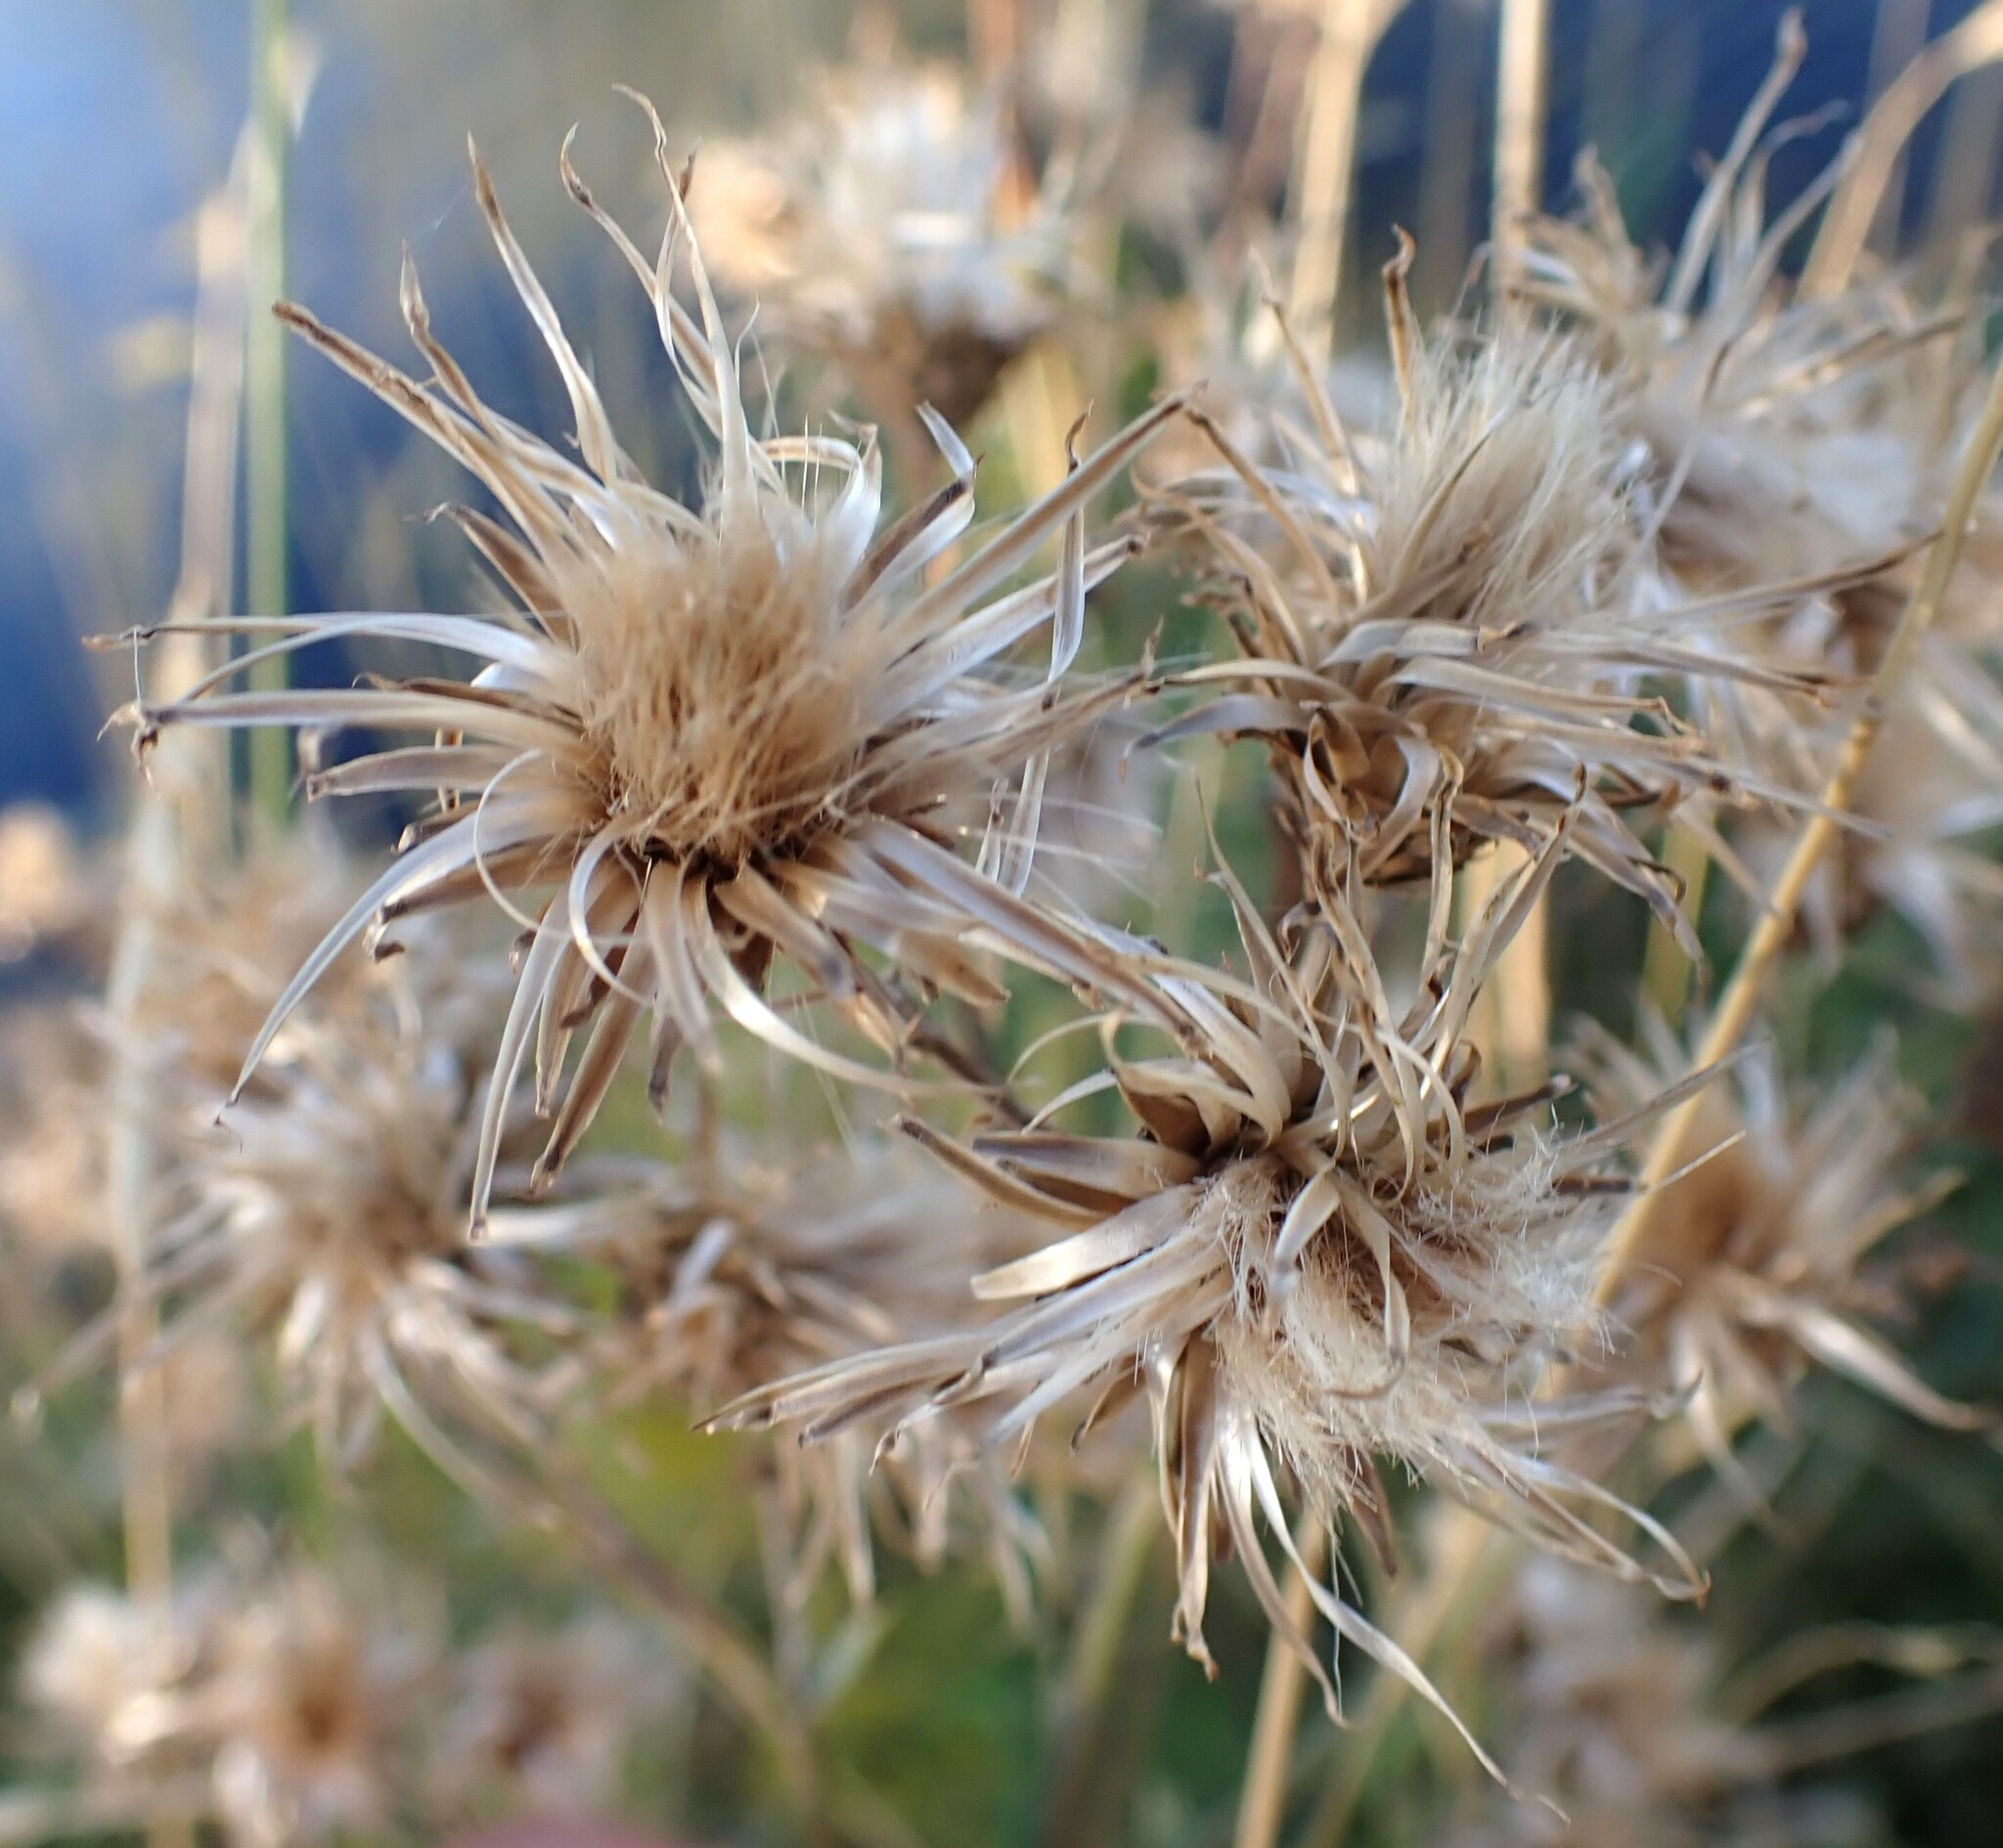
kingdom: Plantae
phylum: Tracheophyta
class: Magnoliopsida
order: Asterales
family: Asteraceae
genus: Cirsium
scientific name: Cirsium arvense
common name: Creeping thistle
